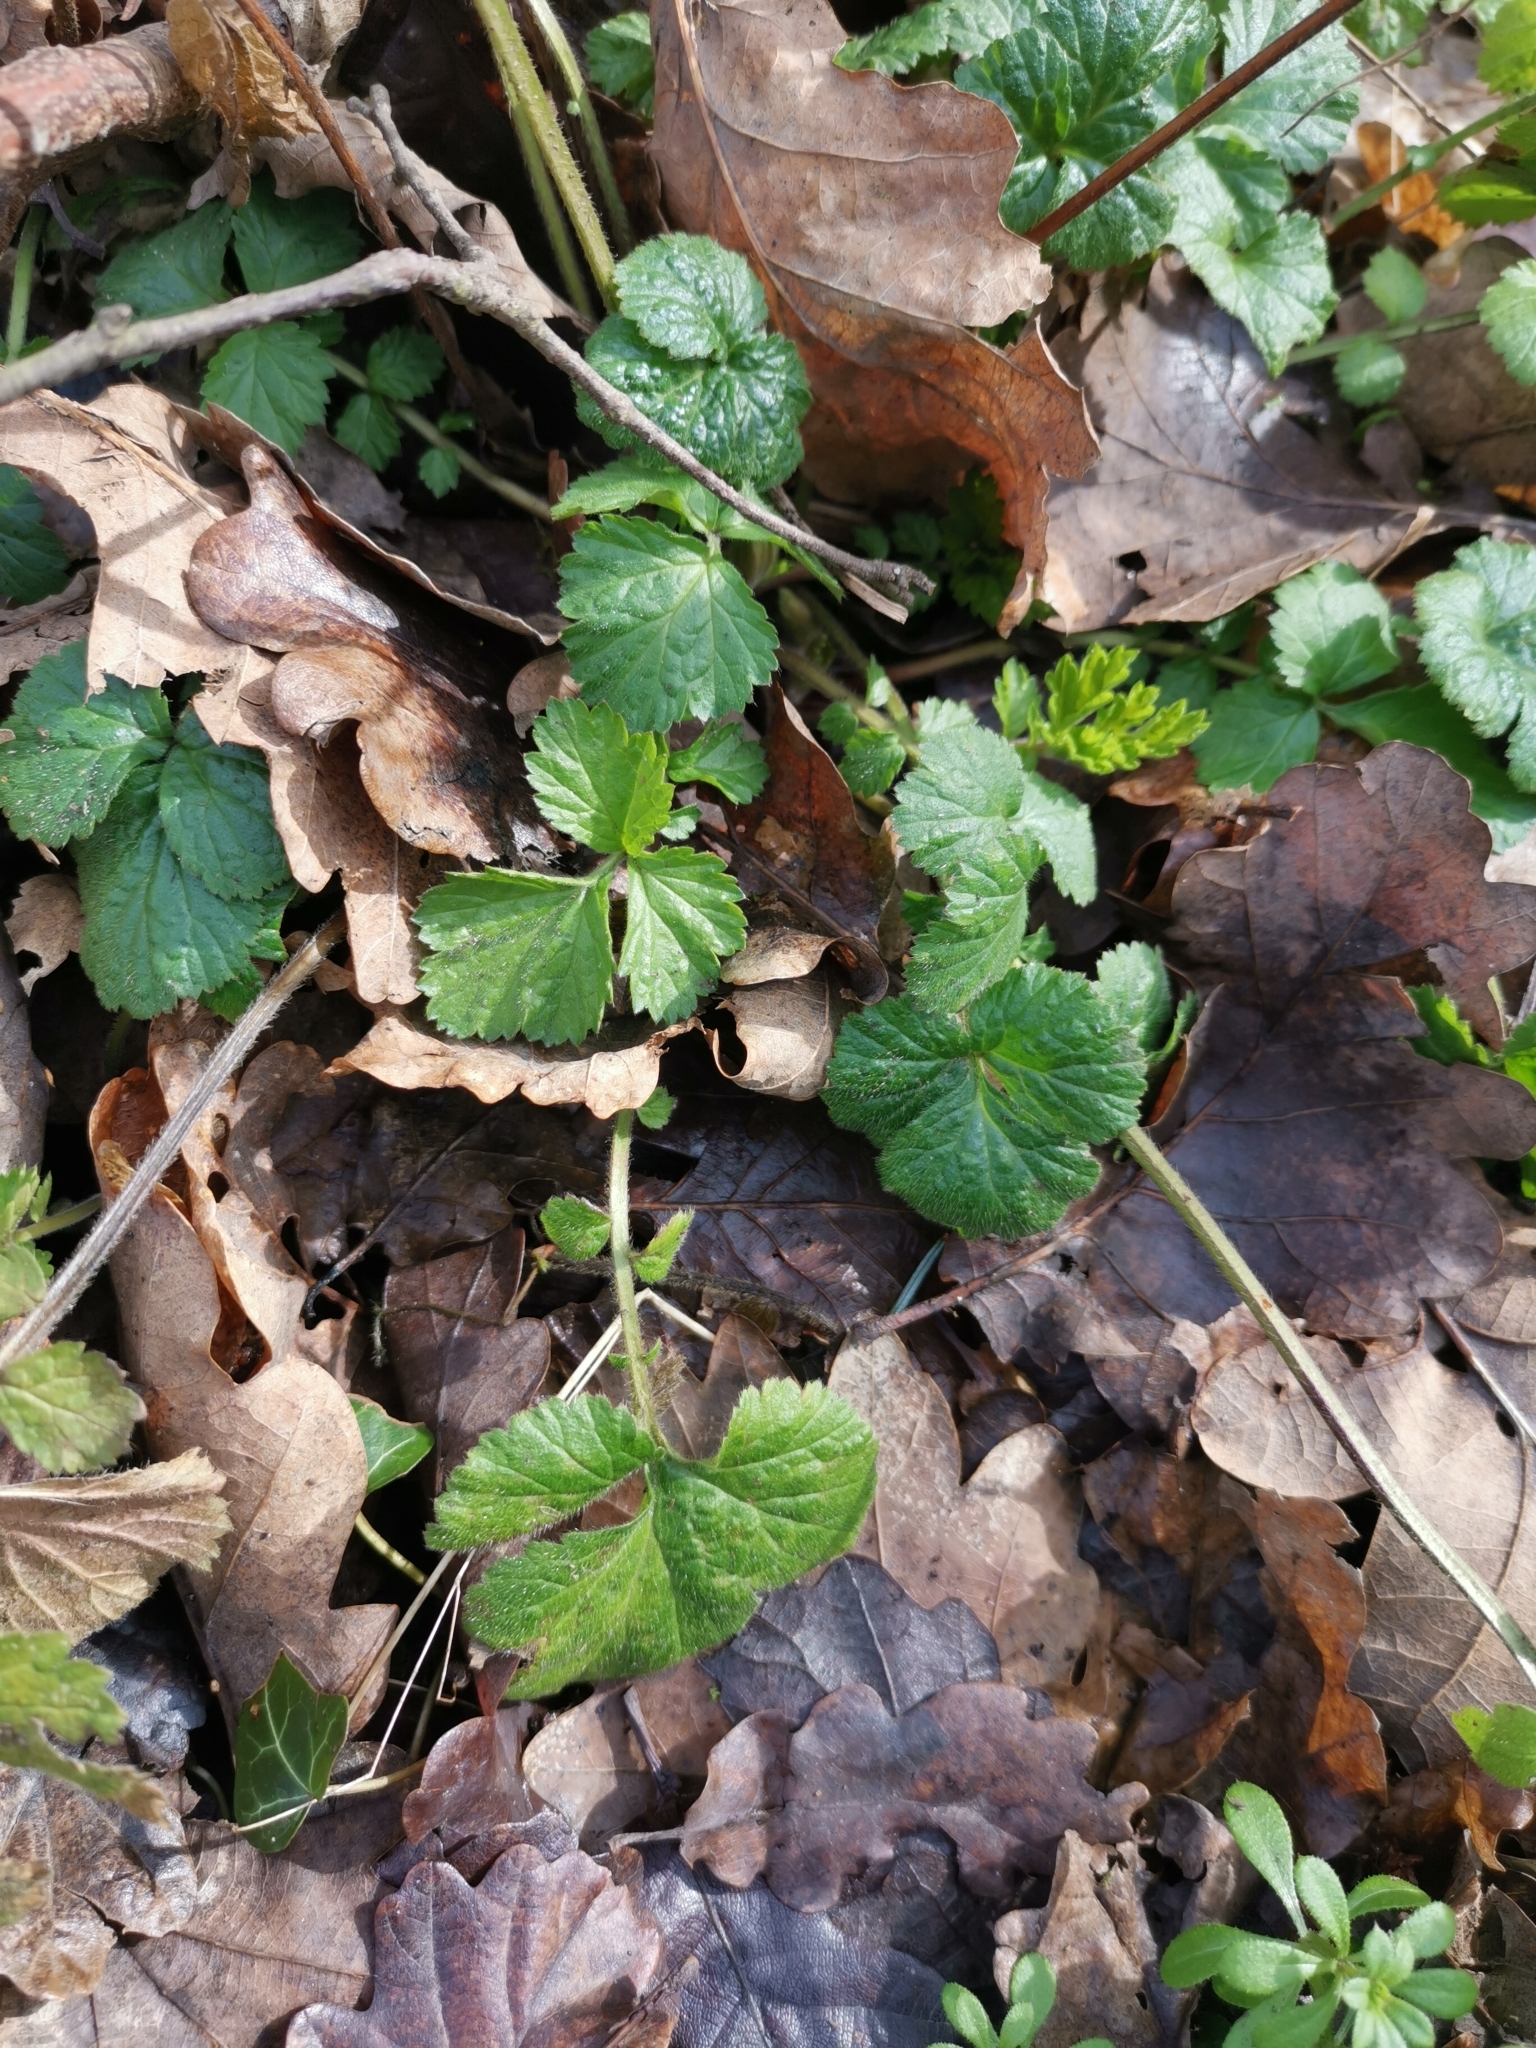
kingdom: Plantae
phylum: Tracheophyta
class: Magnoliopsida
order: Rosales
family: Rosaceae
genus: Geum
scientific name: Geum urbanum
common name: Wood avens
